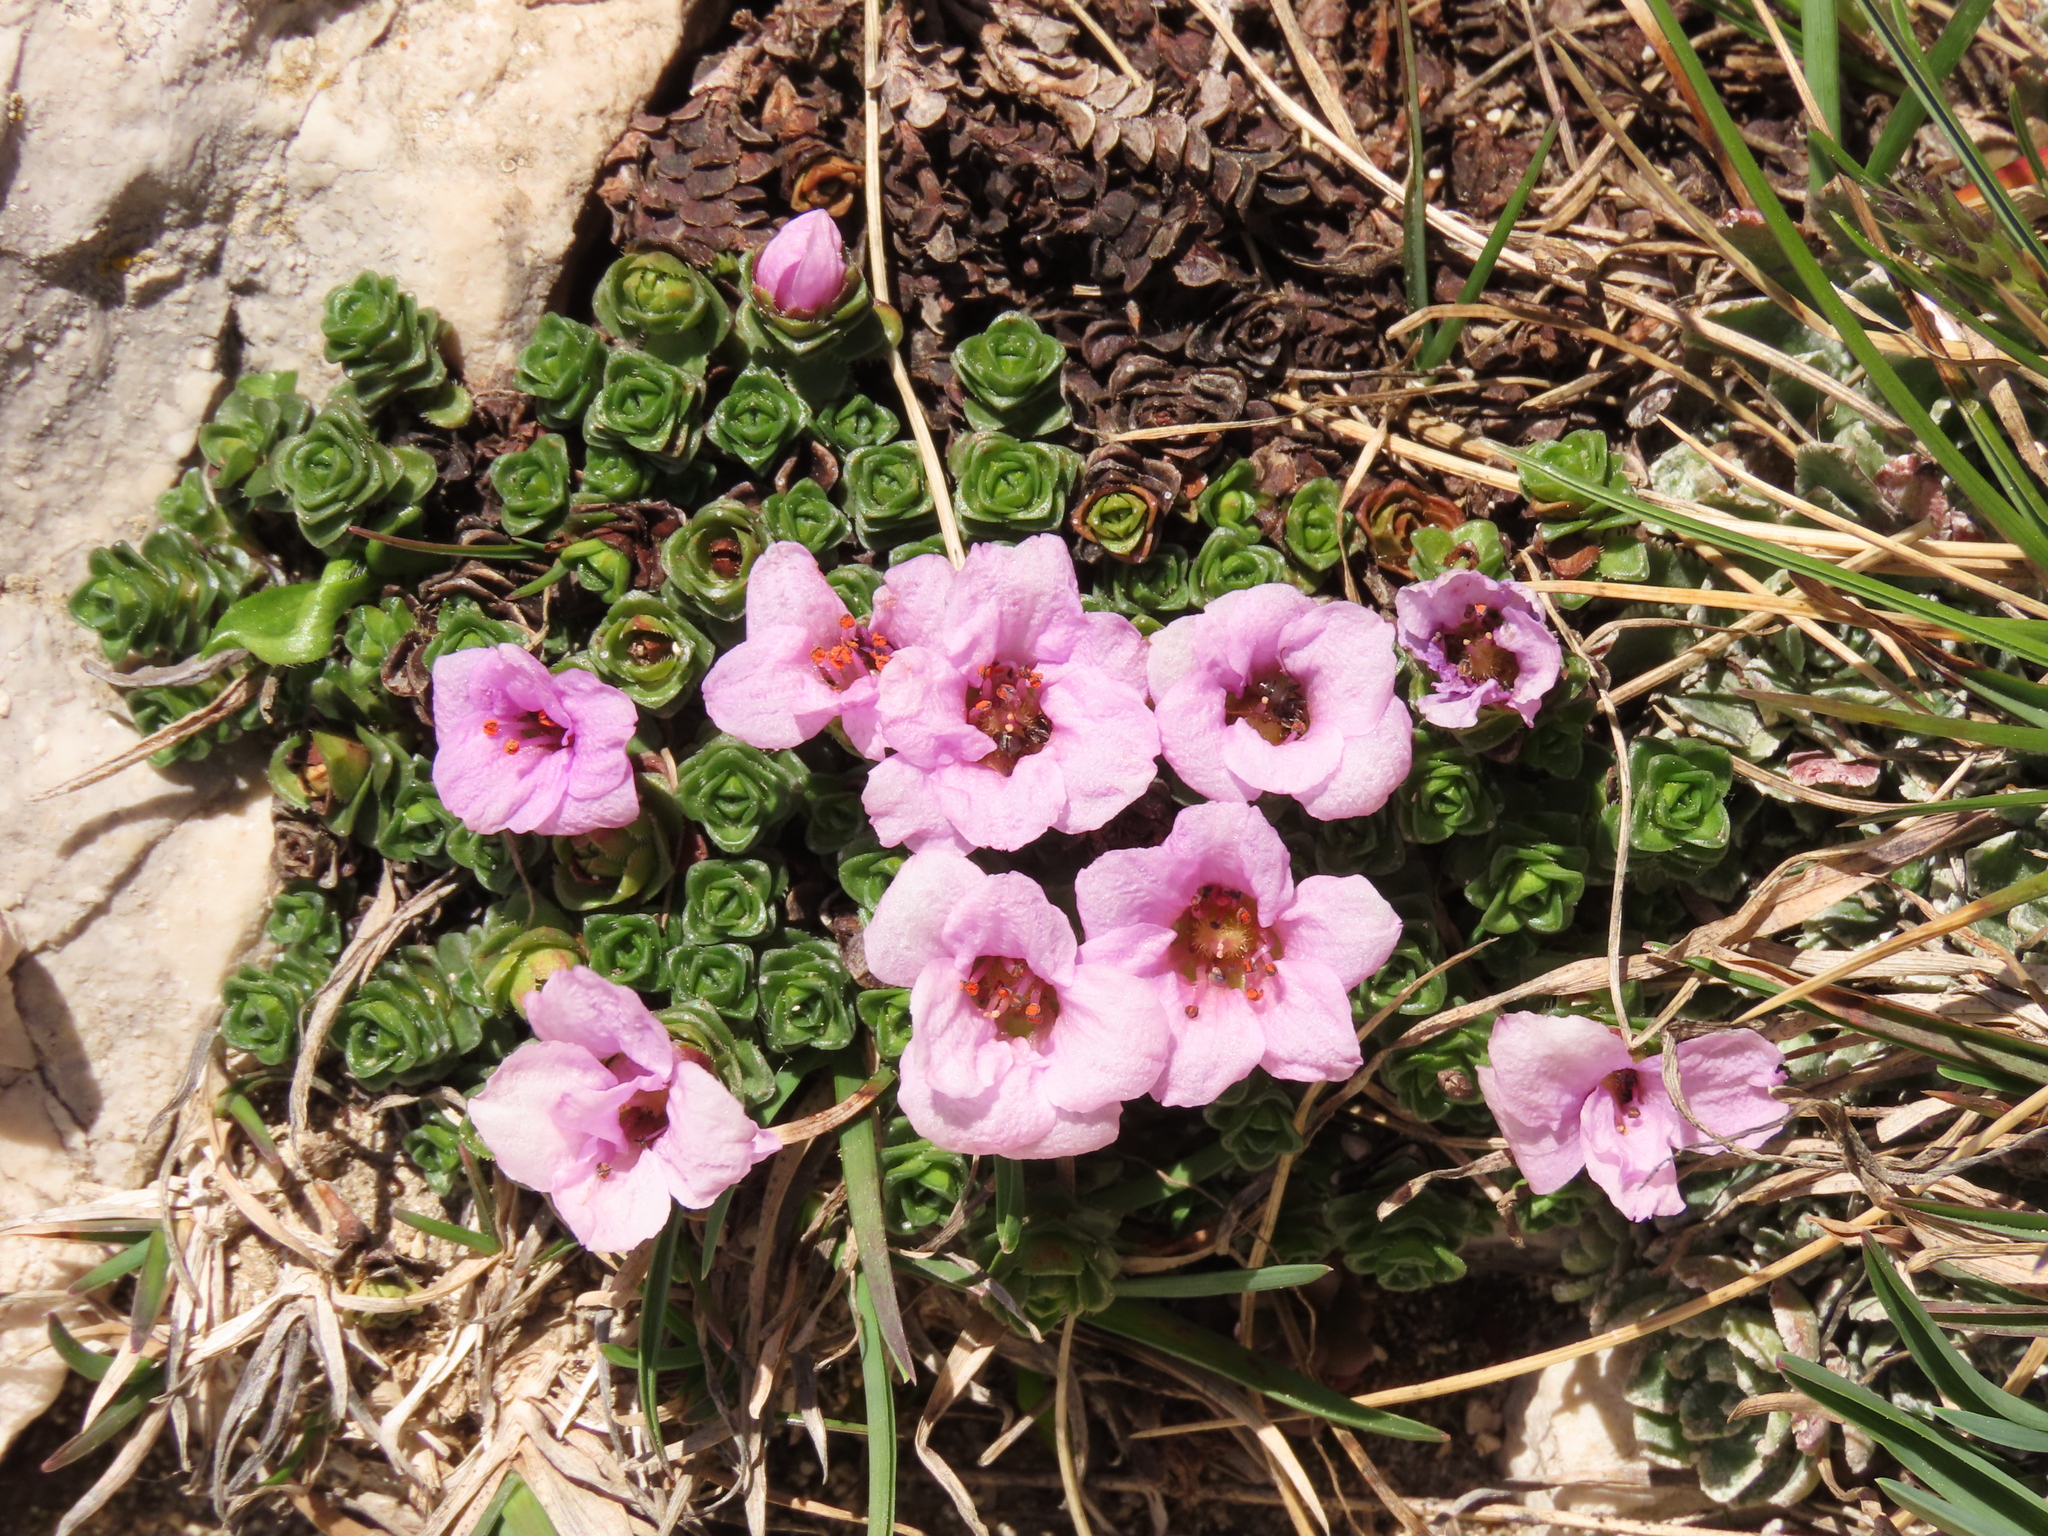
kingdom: Plantae
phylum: Tracheophyta
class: Magnoliopsida
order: Saxifragales
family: Saxifragaceae
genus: Saxifraga
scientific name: Saxifraga oppositifolia
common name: Purple saxifrage
